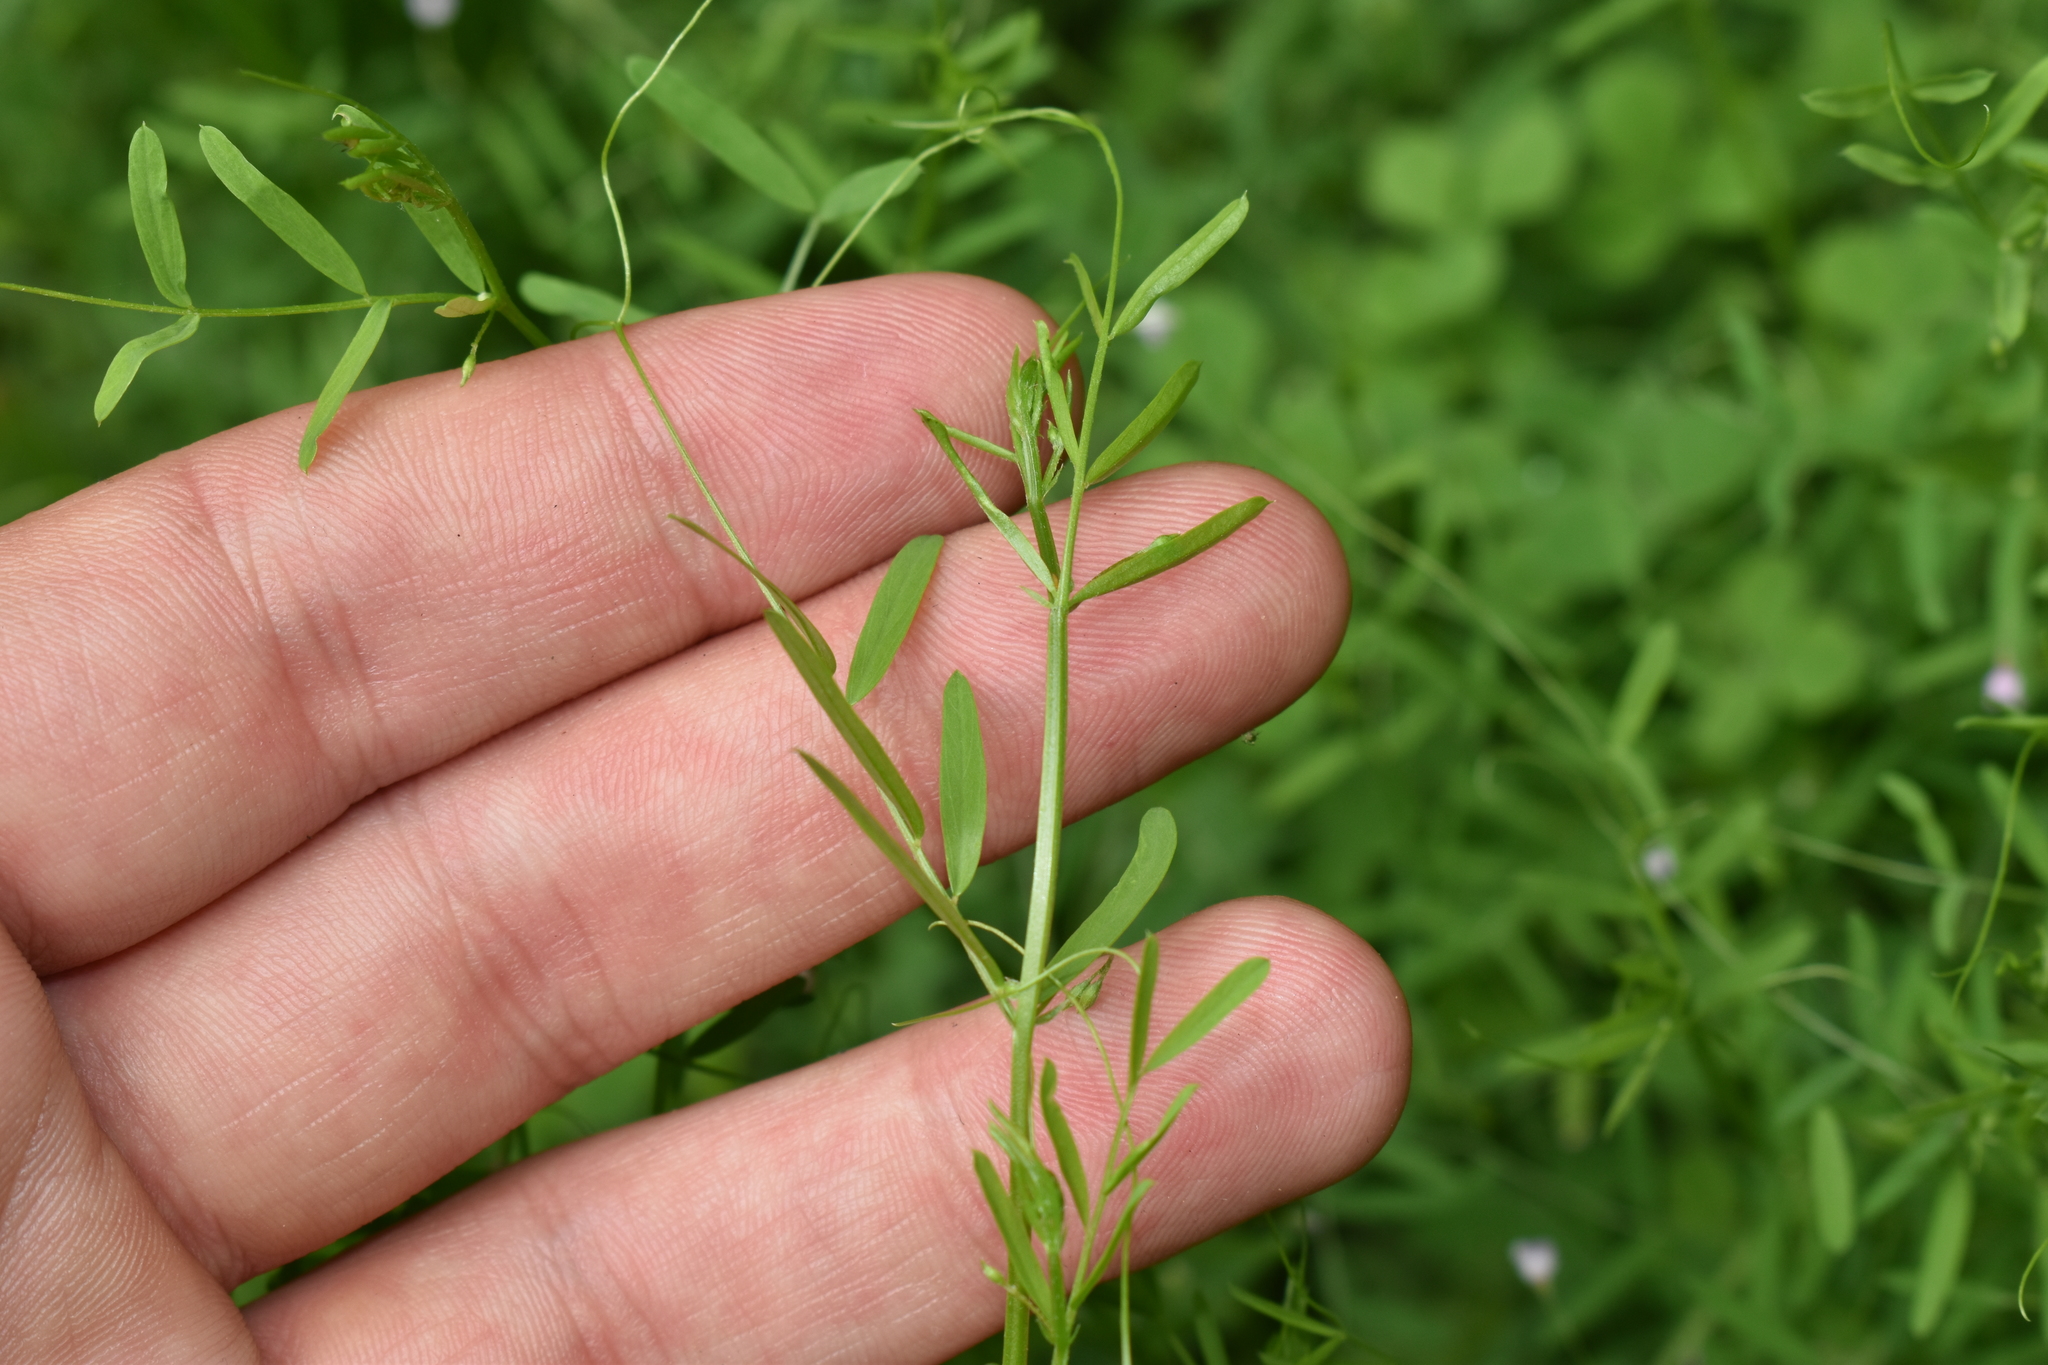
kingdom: Plantae
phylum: Tracheophyta
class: Magnoliopsida
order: Fabales
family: Fabaceae
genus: Vicia
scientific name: Vicia tetrasperma
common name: Smooth tare
